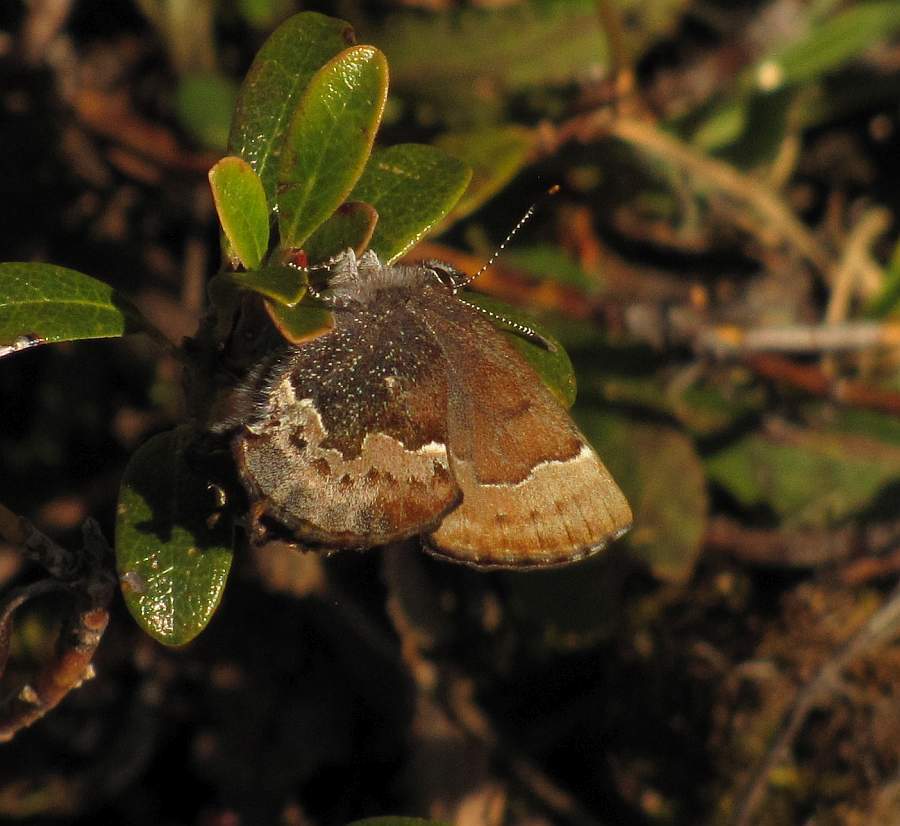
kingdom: Animalia
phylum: Arthropoda
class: Insecta
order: Lepidoptera
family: Lycaenidae
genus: Incisalia
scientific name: Incisalia henrici
